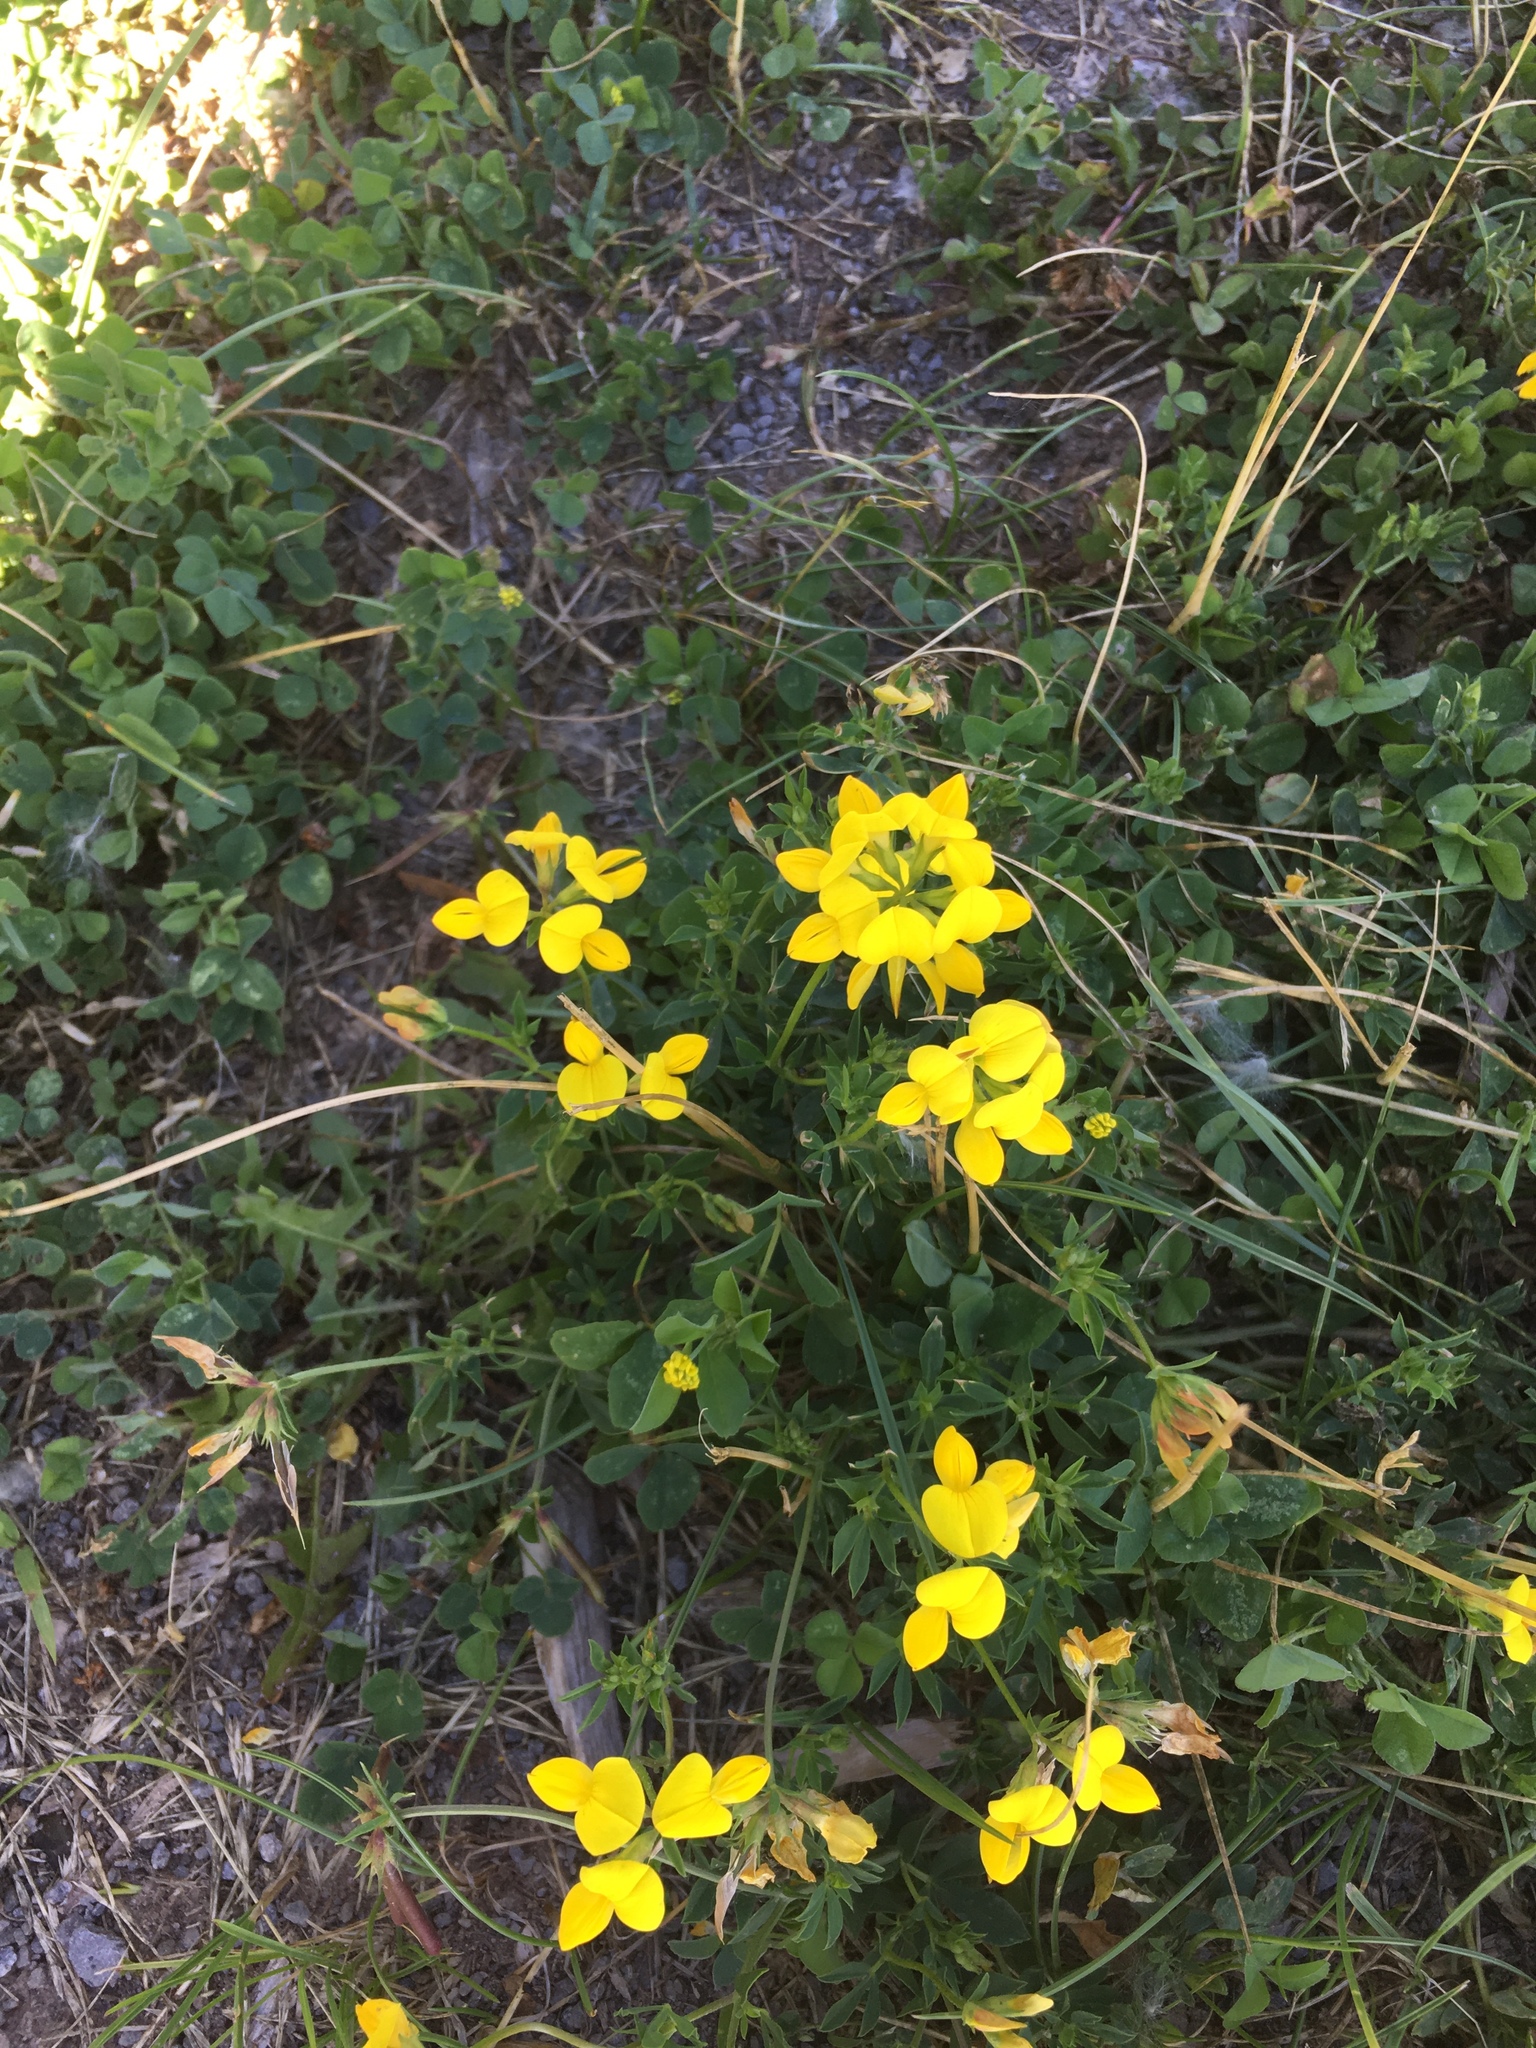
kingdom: Plantae
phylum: Tracheophyta
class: Magnoliopsida
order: Fabales
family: Fabaceae
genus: Lotus
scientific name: Lotus corniculatus
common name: Common bird's-foot-trefoil
